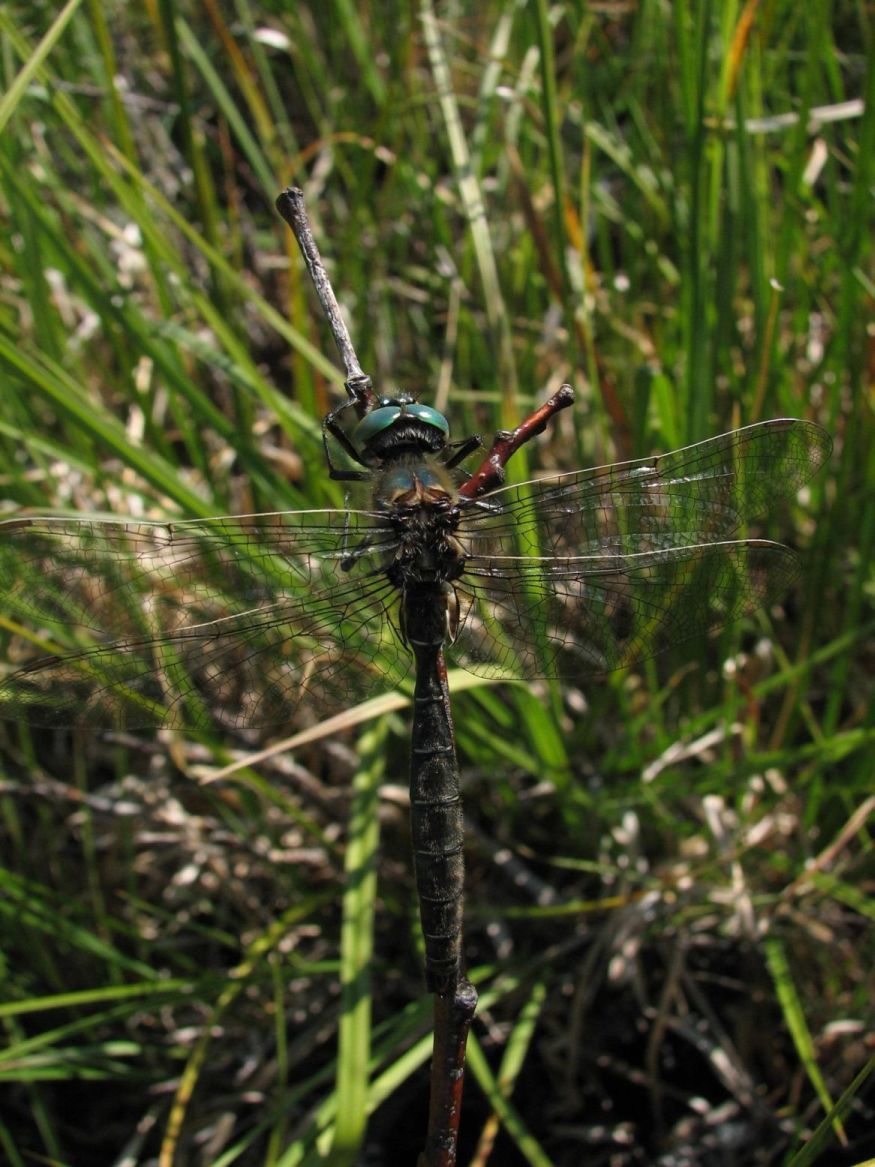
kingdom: Animalia
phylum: Arthropoda
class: Insecta
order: Odonata
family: Corduliidae
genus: Somatochlora
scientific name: Somatochlora hudsonica
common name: Hudsonian emerald
